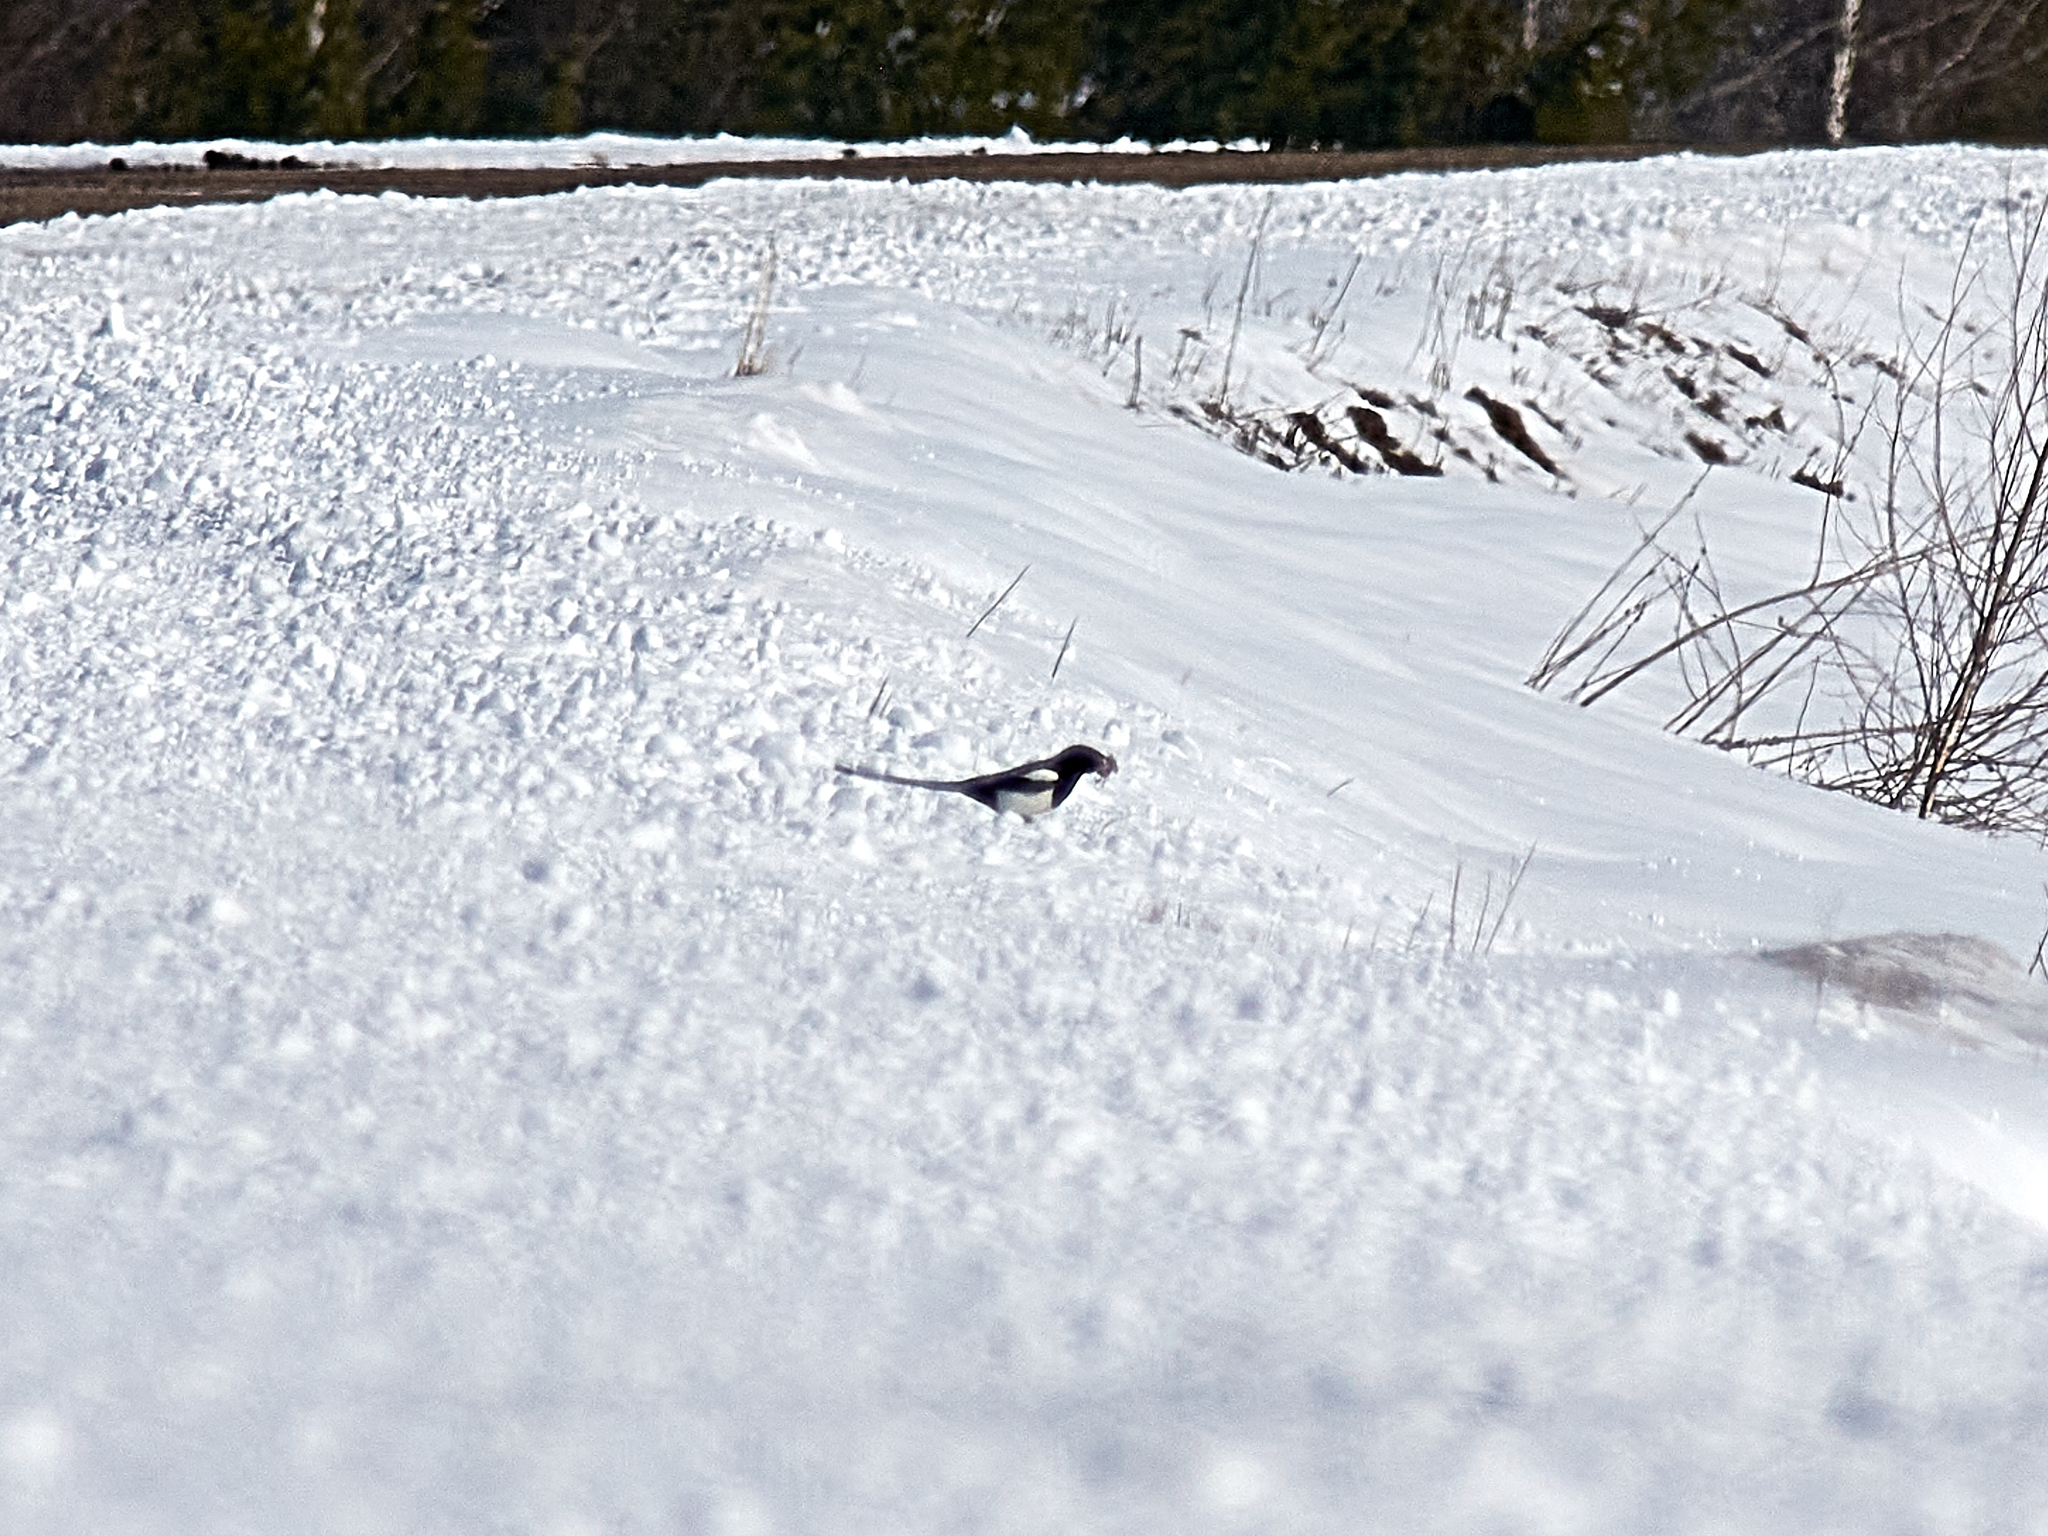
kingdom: Animalia
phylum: Chordata
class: Aves
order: Passeriformes
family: Corvidae
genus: Pica
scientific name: Pica pica
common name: Eurasian magpie
